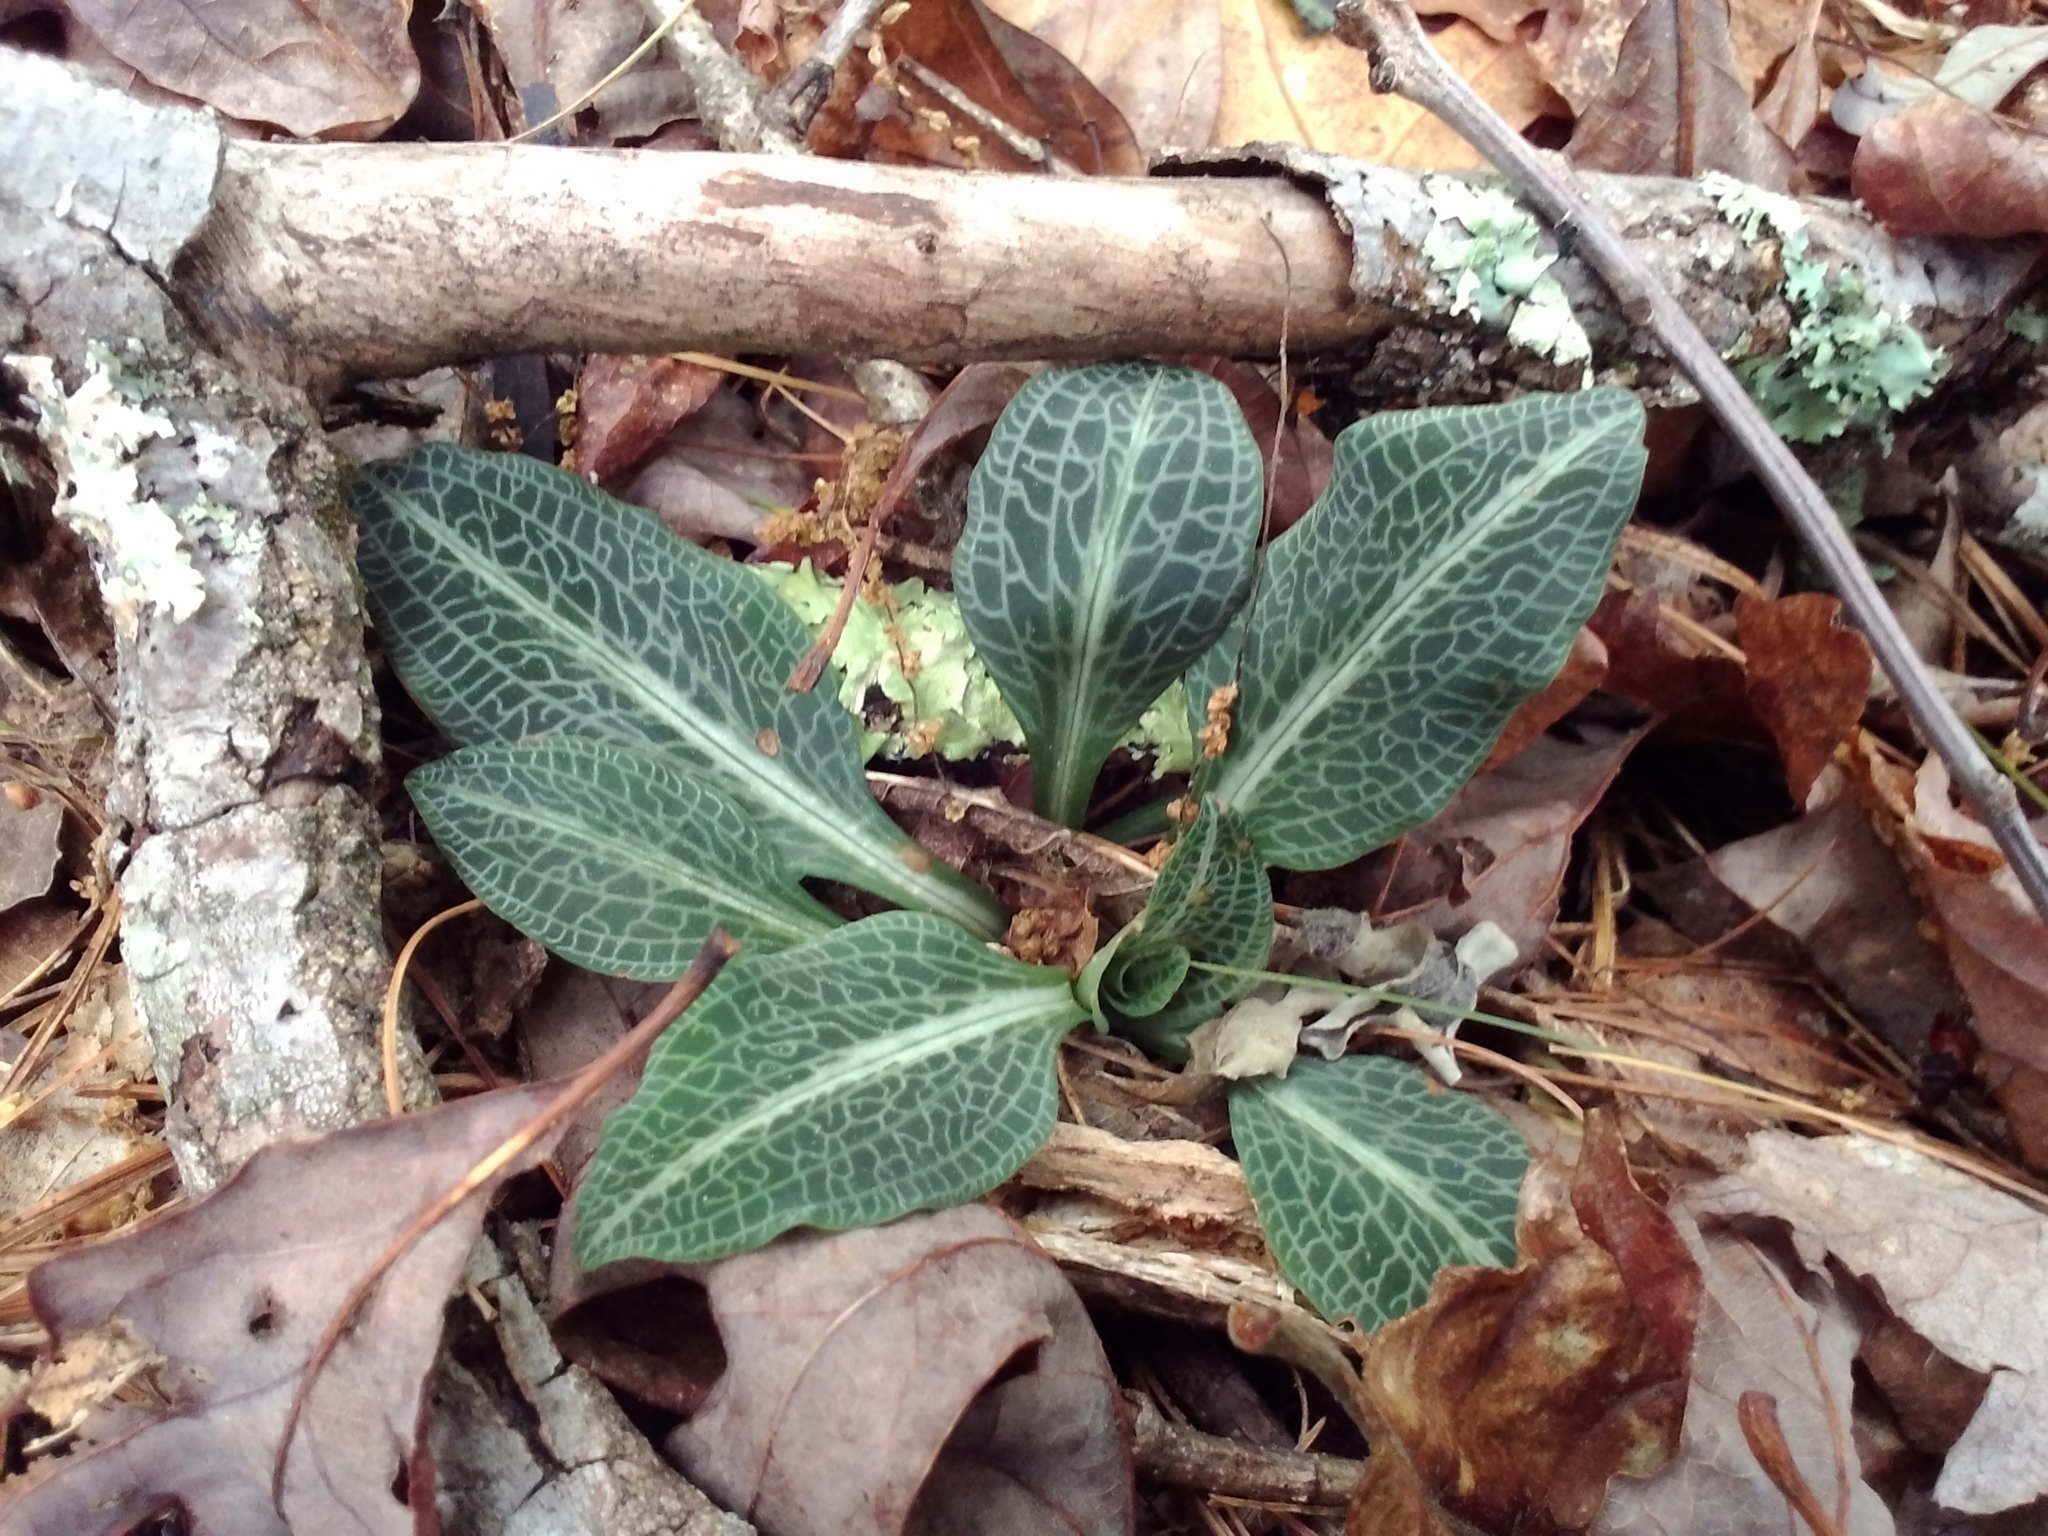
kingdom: Plantae
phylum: Tracheophyta
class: Liliopsida
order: Asparagales
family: Orchidaceae
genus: Goodyera
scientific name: Goodyera pubescens
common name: Downy rattlesnake-plantain
